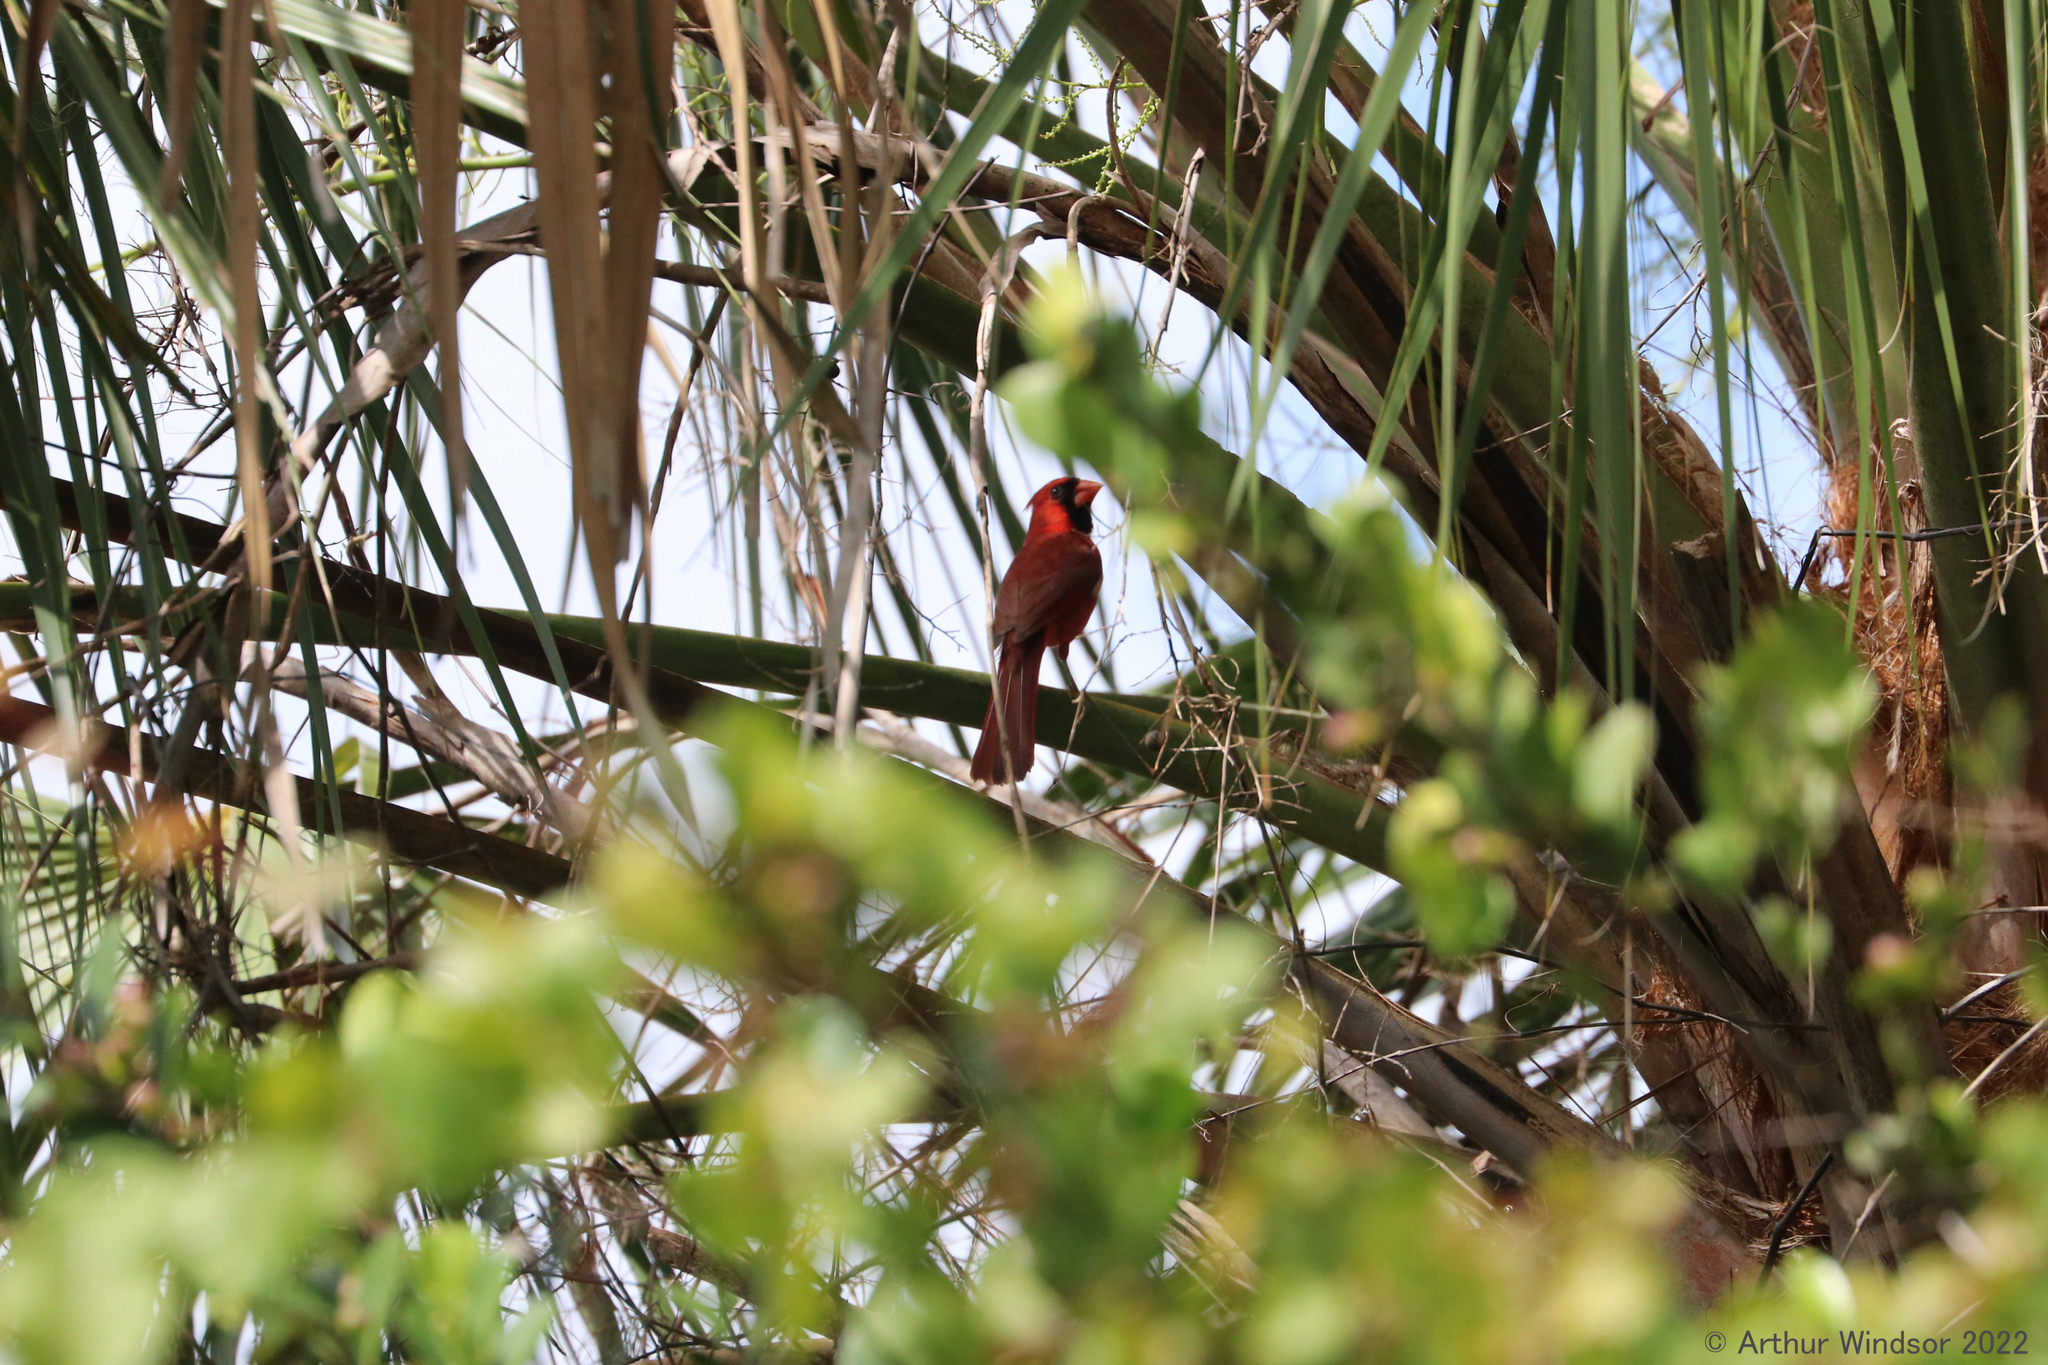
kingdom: Animalia
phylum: Chordata
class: Aves
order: Passeriformes
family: Cardinalidae
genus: Cardinalis
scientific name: Cardinalis cardinalis
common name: Northern cardinal
